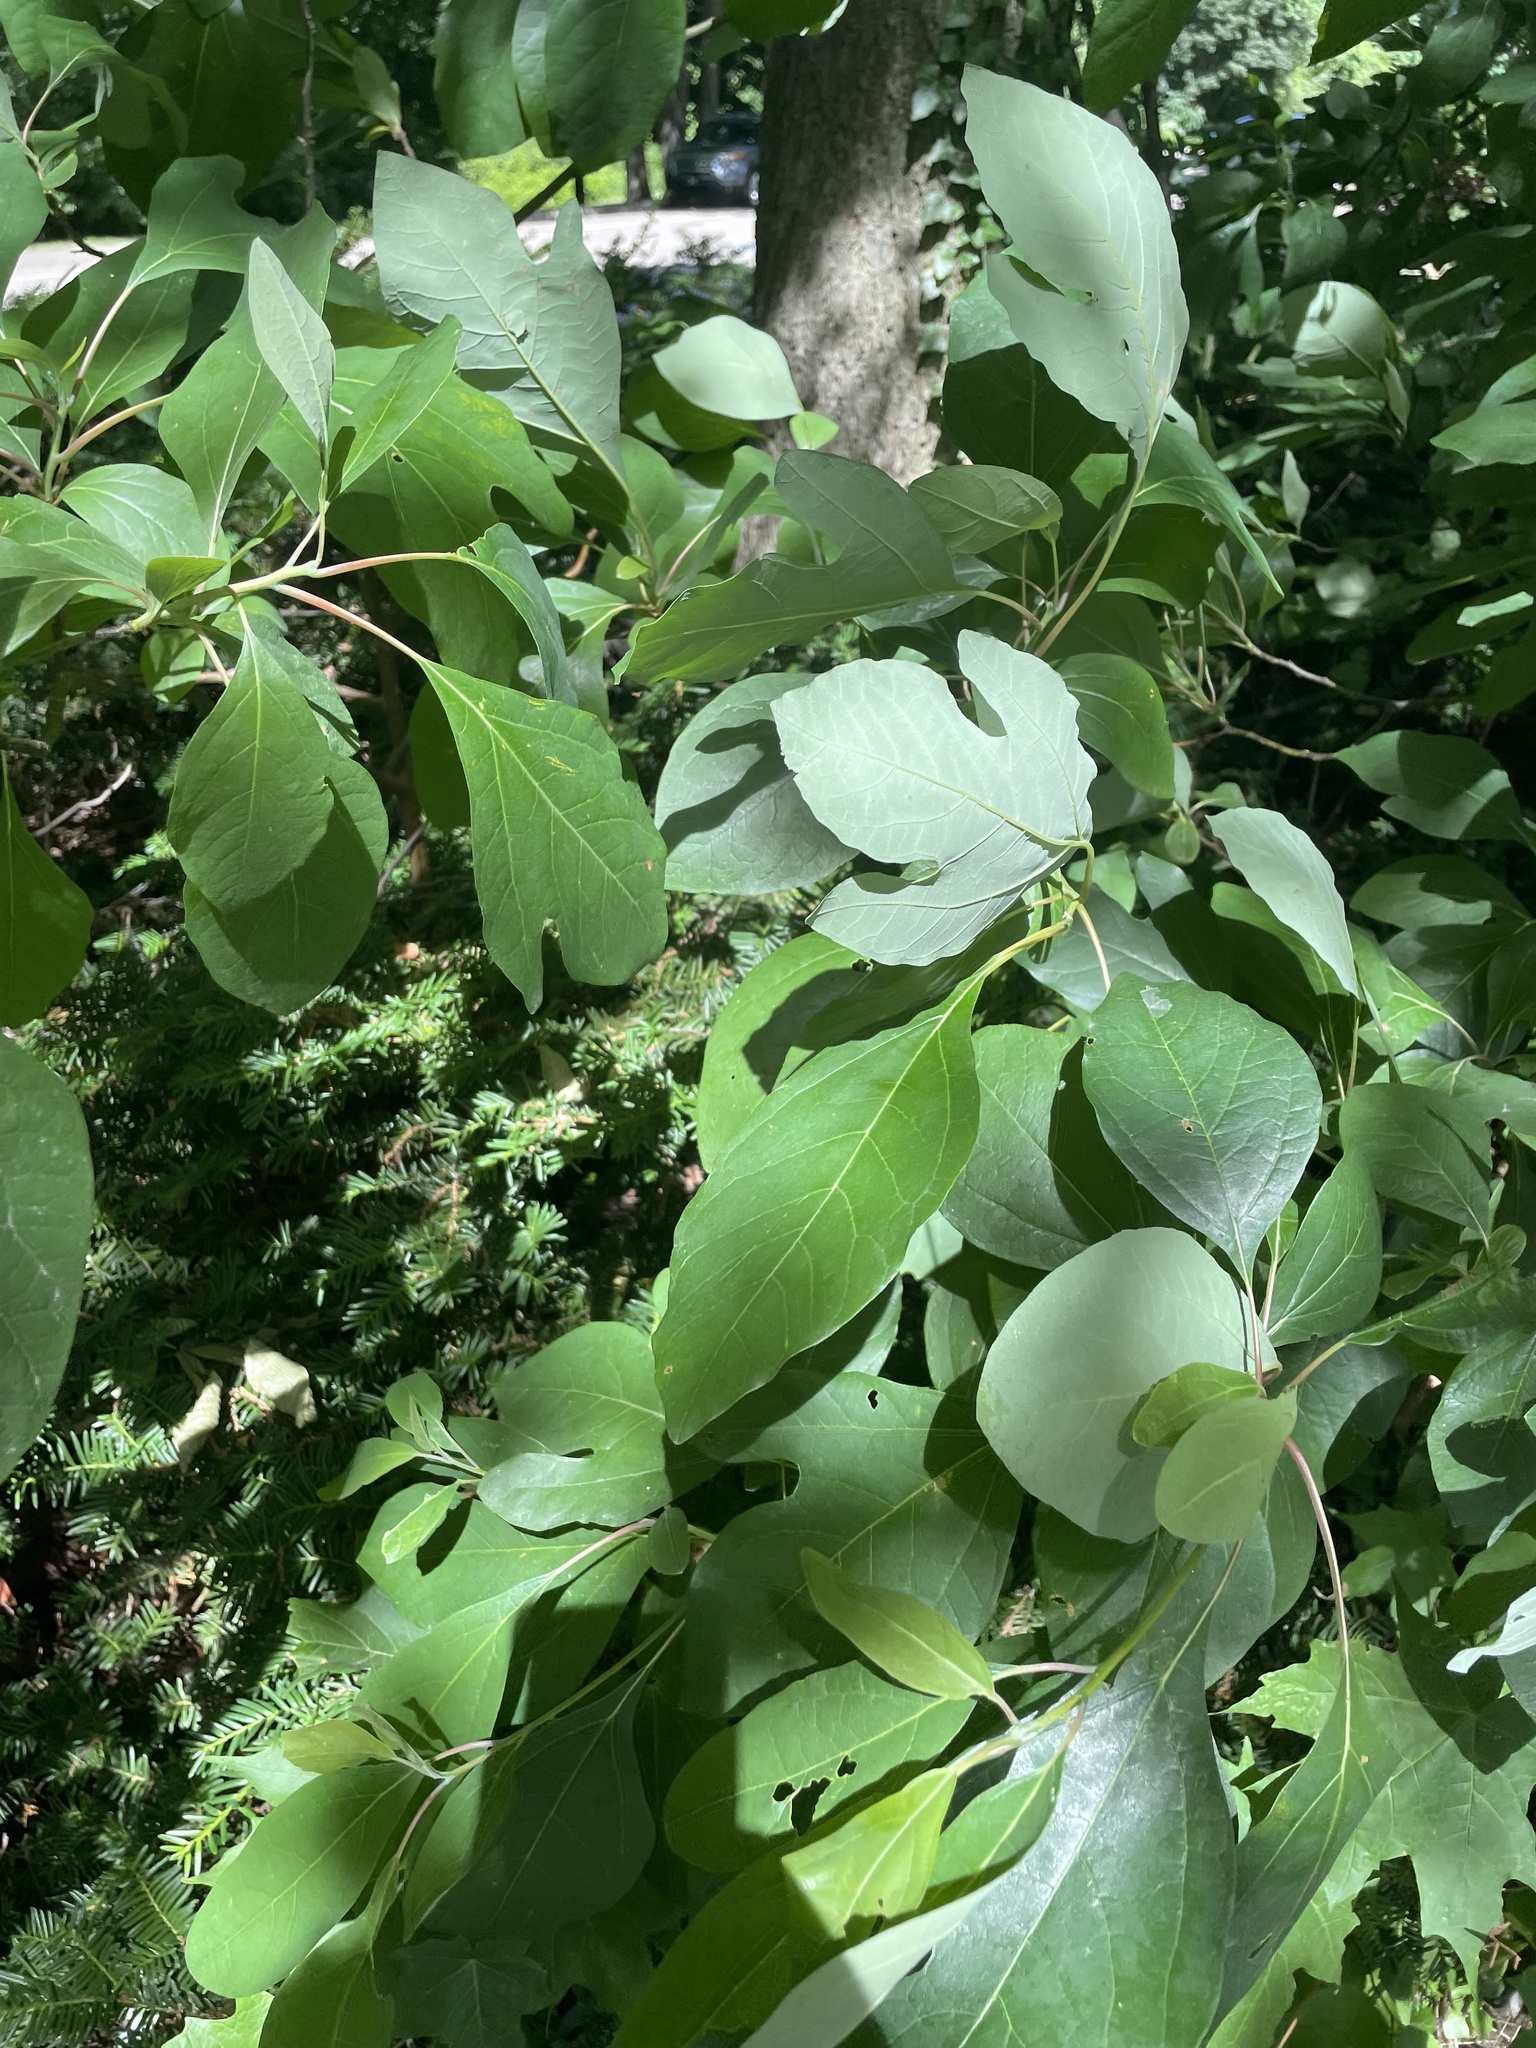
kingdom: Plantae
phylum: Tracheophyta
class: Magnoliopsida
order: Laurales
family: Lauraceae
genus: Sassafras
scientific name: Sassafras albidum
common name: Sassafras
